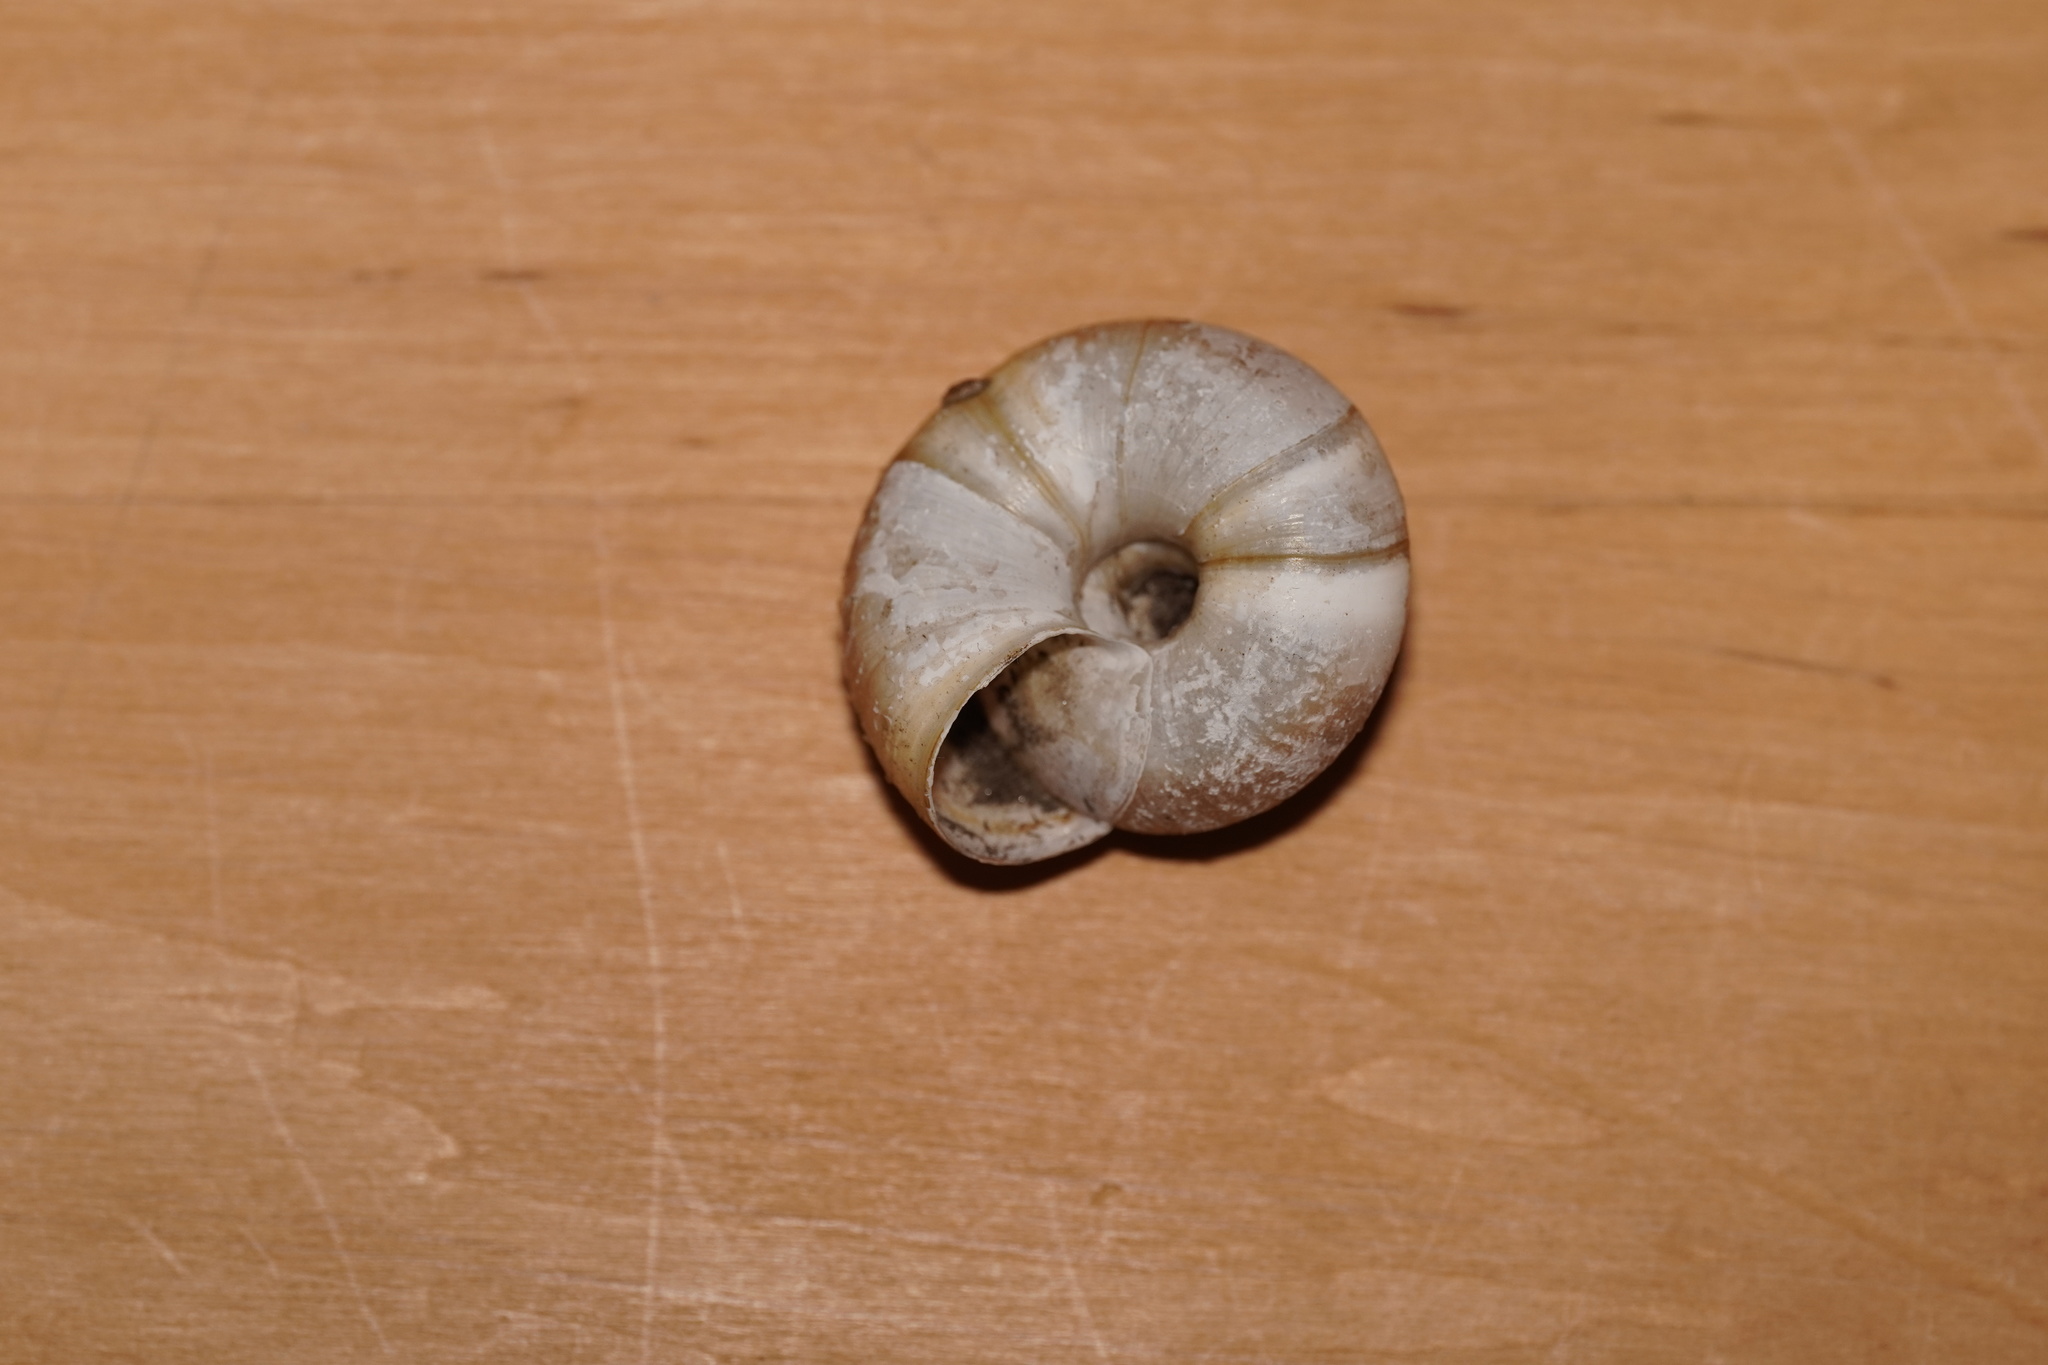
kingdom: Animalia
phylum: Mollusca
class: Gastropoda
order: Stylommatophora
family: Zonitidae
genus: Aegopis
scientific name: Aegopis verticillus
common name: Giant glass snail
